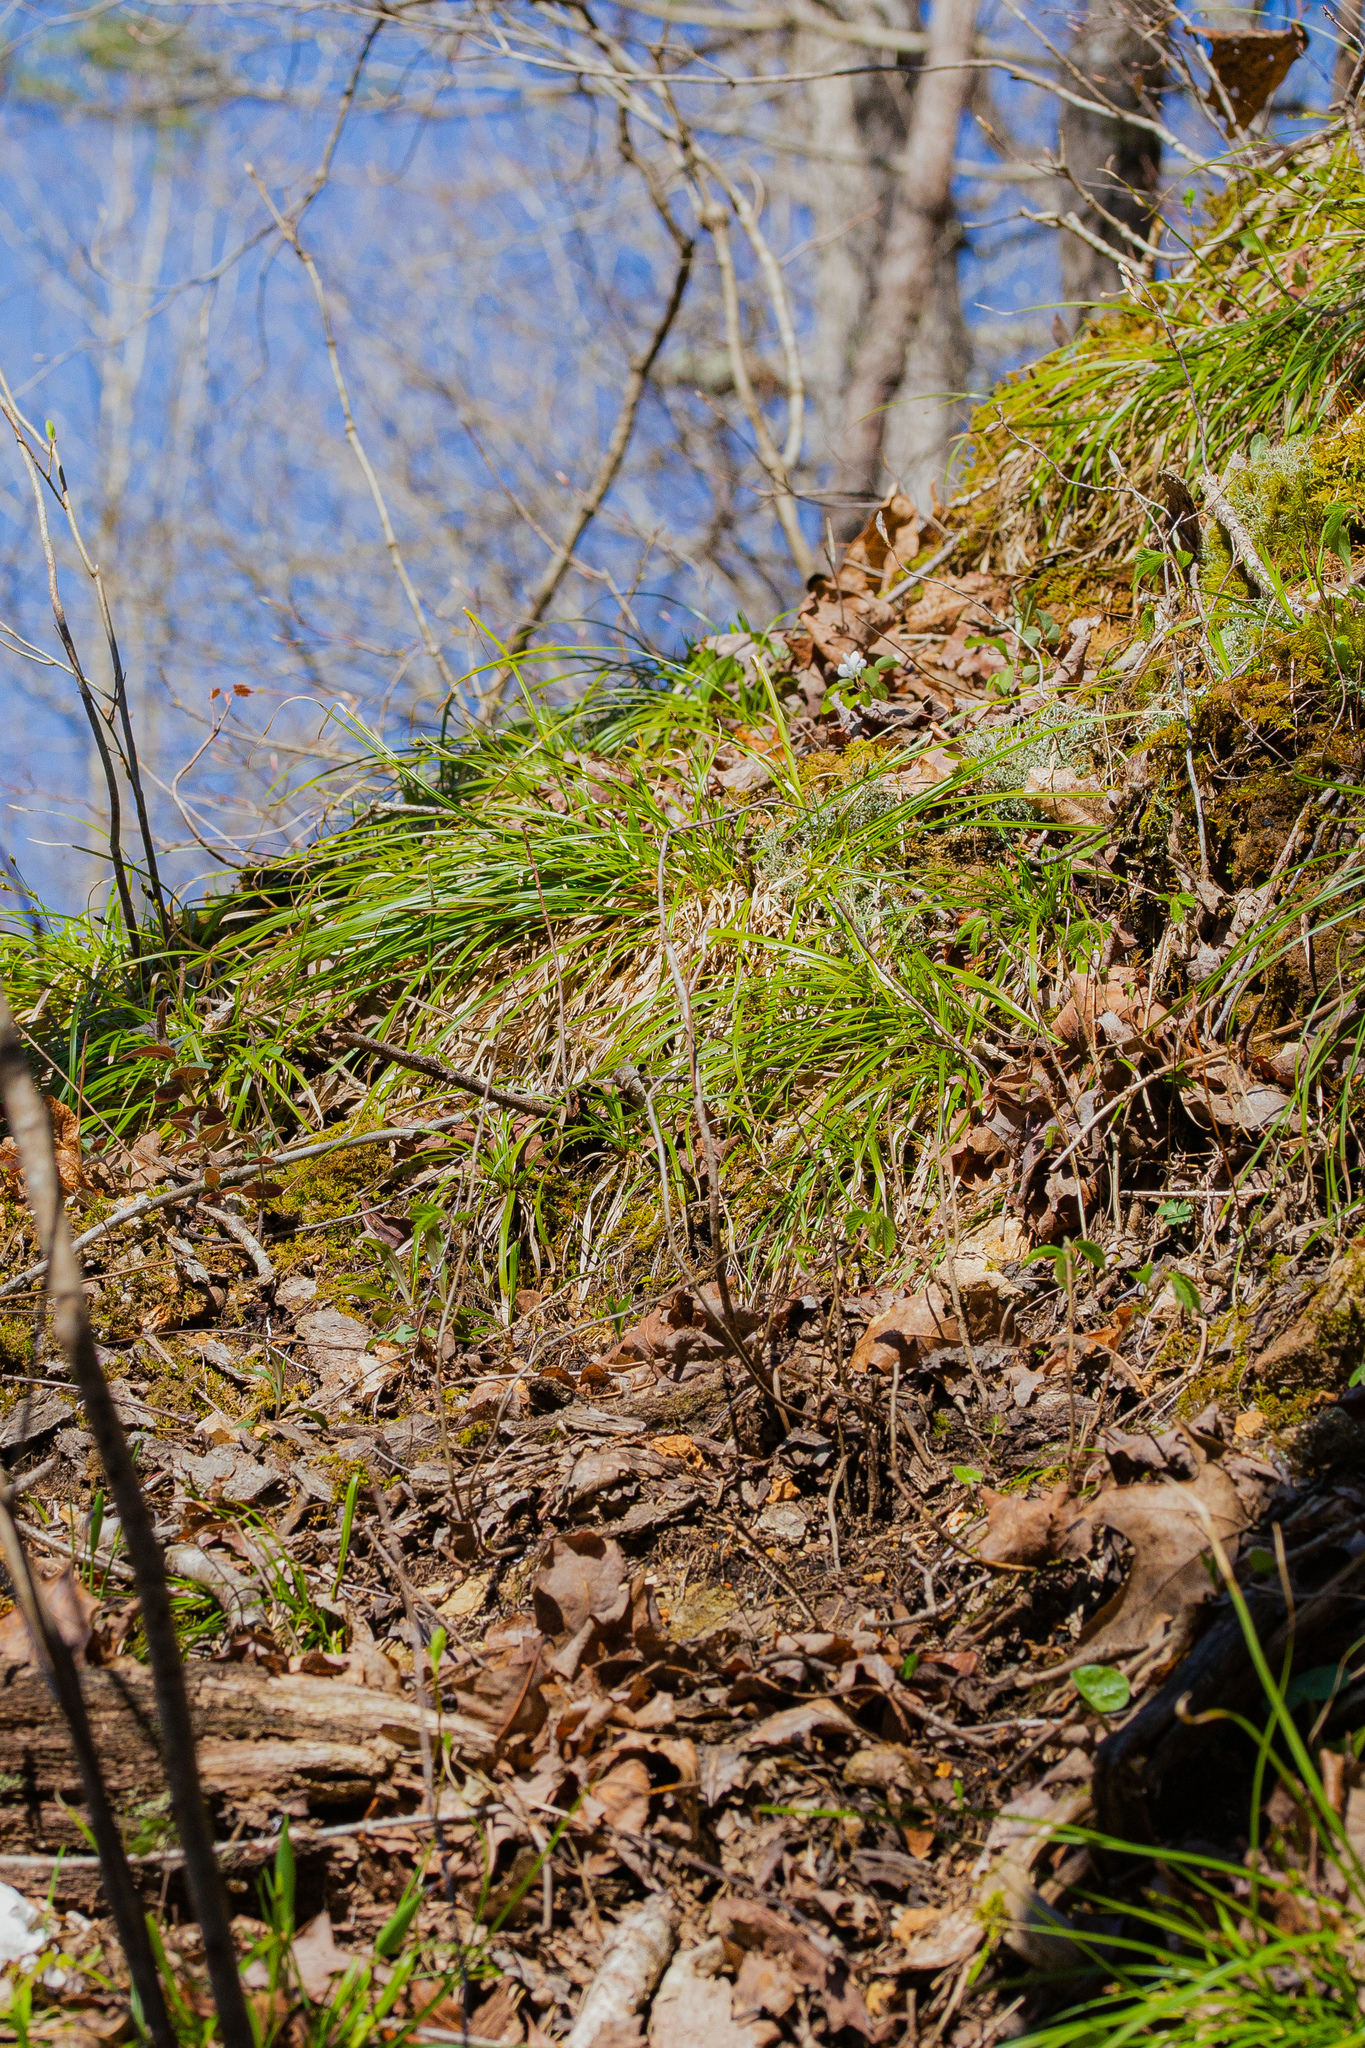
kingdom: Plantae
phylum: Tracheophyta
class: Liliopsida
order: Poales
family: Cyperaceae
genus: Carex
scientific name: Carex pedunculata
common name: Pedunculate sedge
